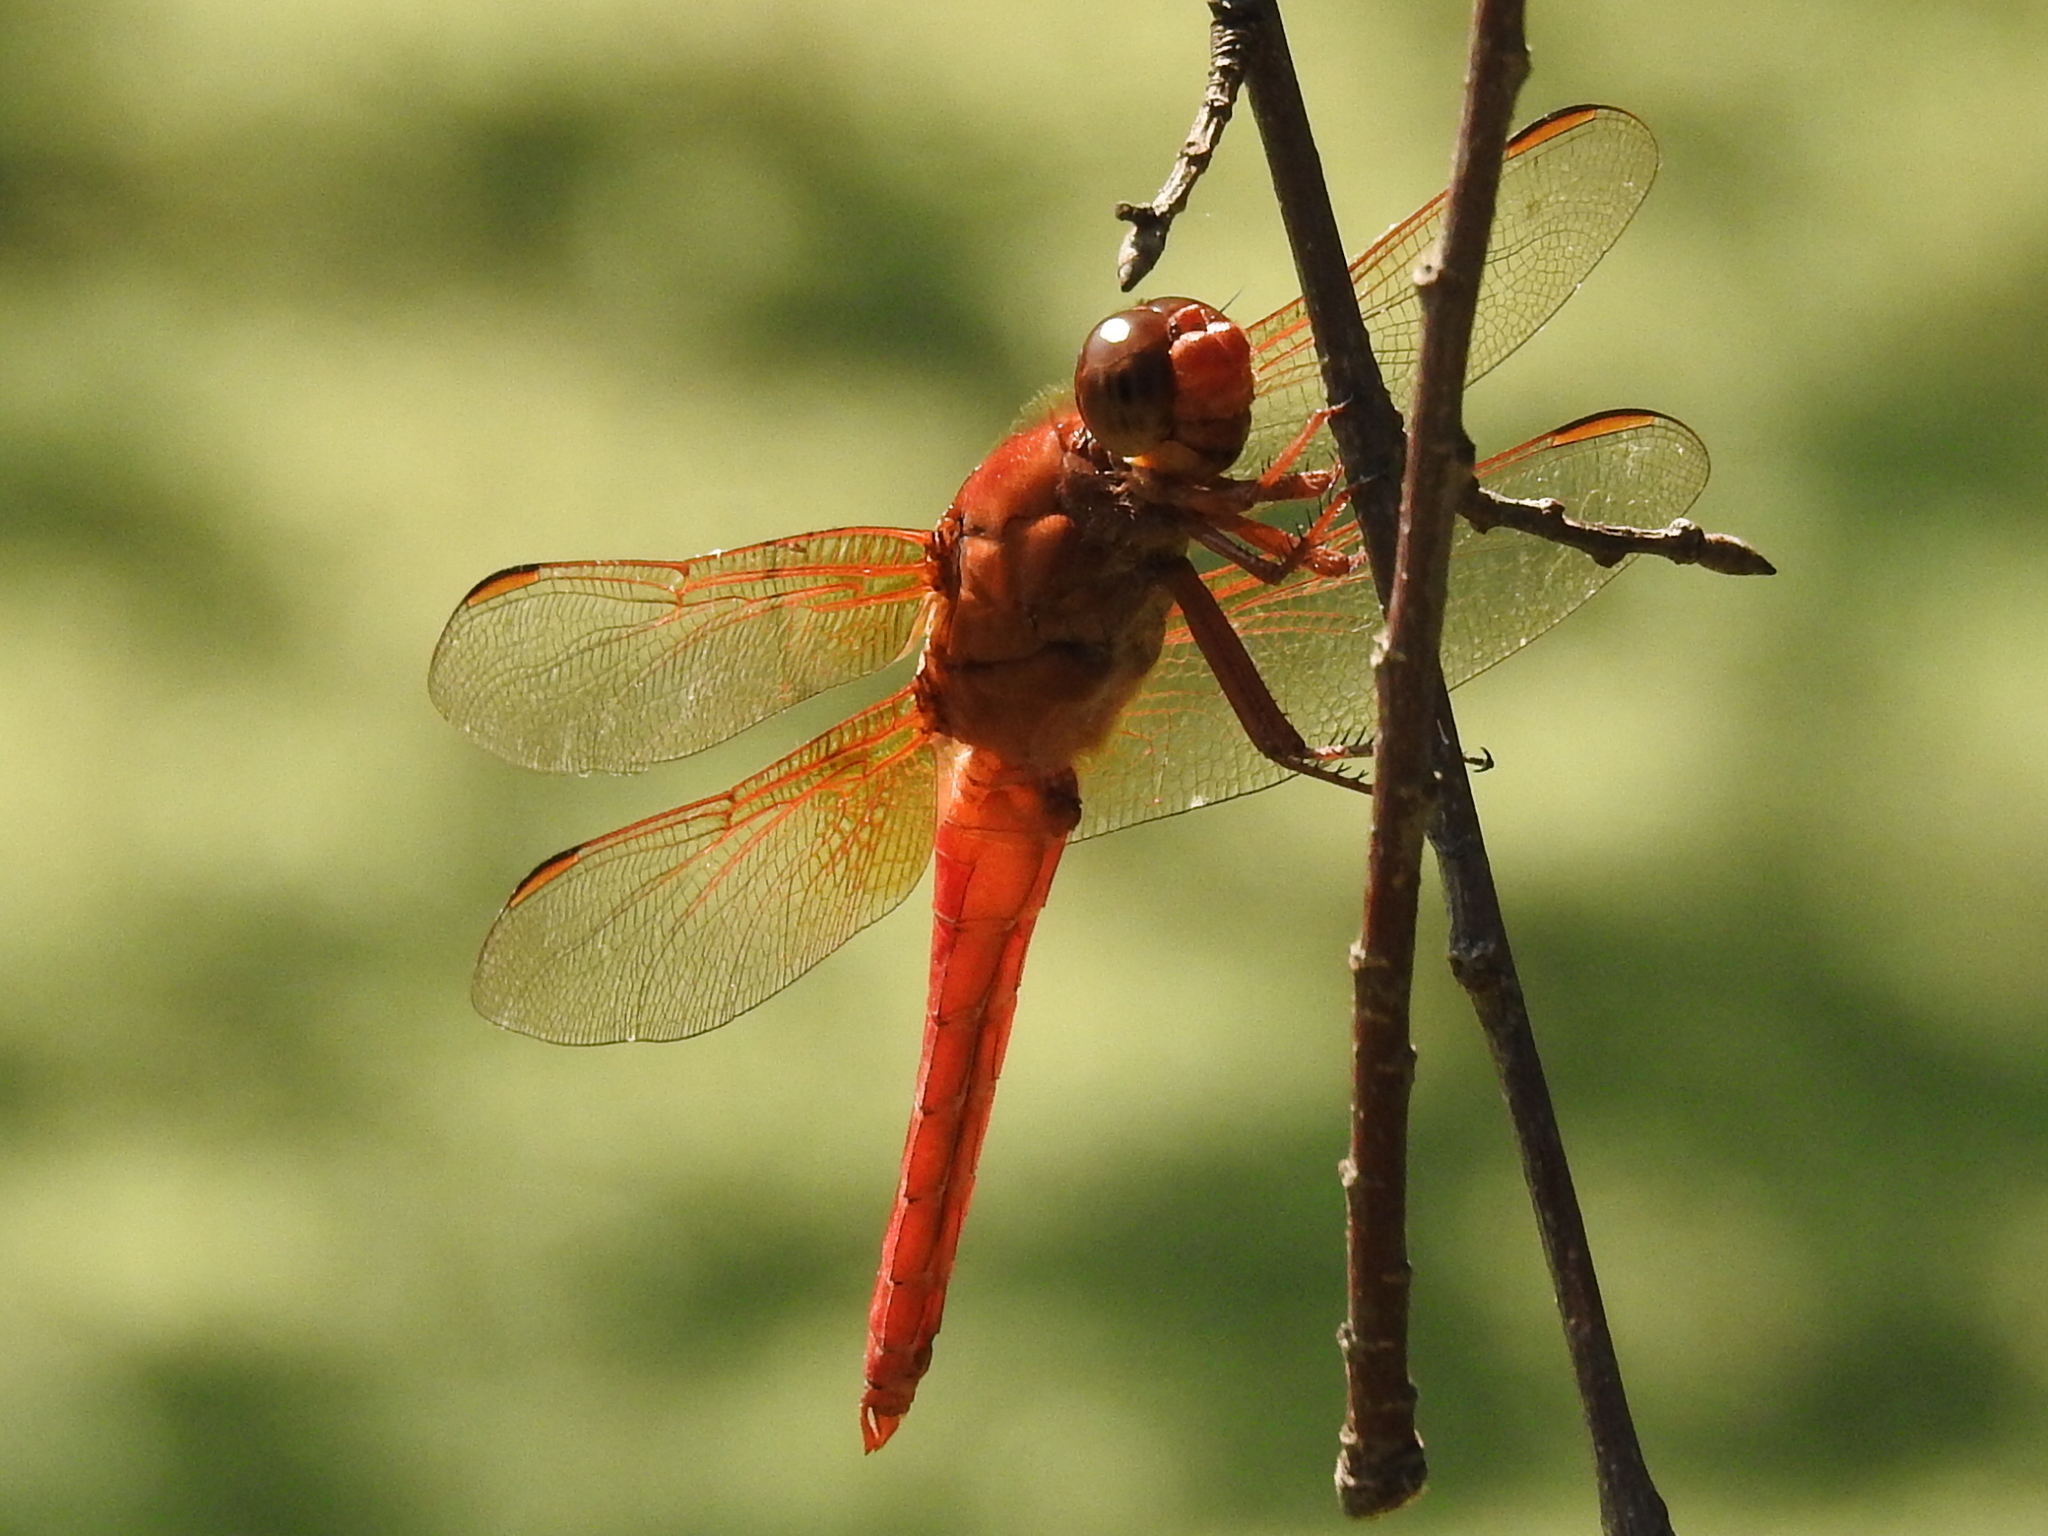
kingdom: Animalia
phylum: Arthropoda
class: Insecta
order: Odonata
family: Libellulidae
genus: Libellula
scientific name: Libellula croceipennis
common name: Neon skimmer
